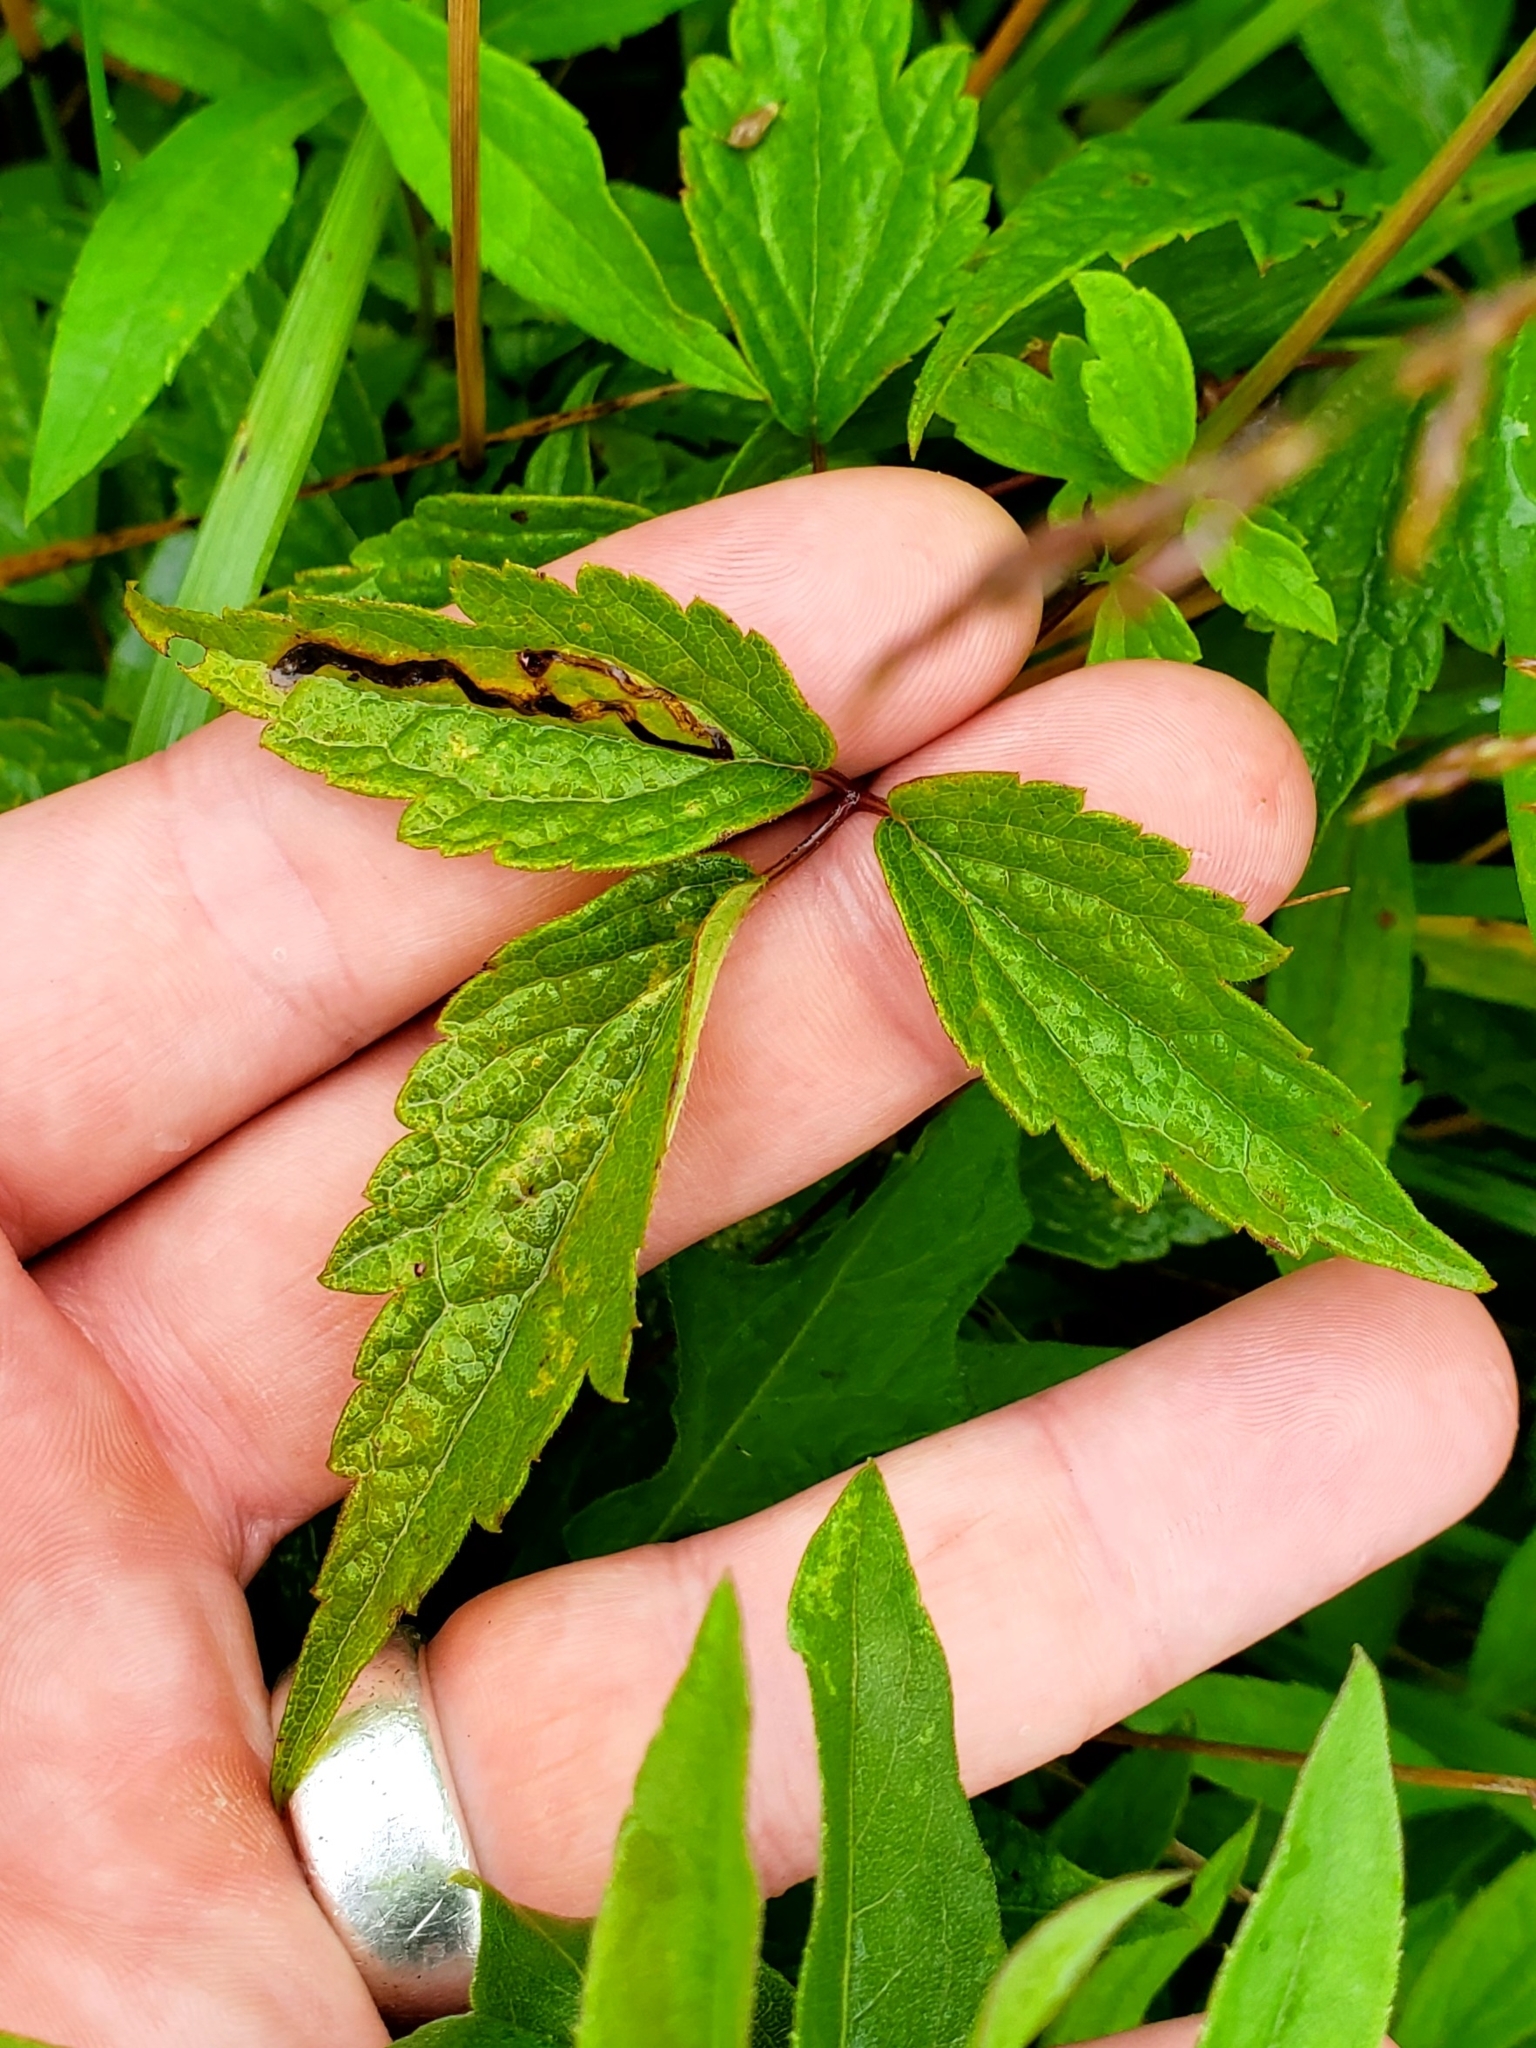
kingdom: Animalia
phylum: Arthropoda
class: Insecta
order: Diptera
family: Agromyzidae
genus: Phytomyza
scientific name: Phytomyza loewii
